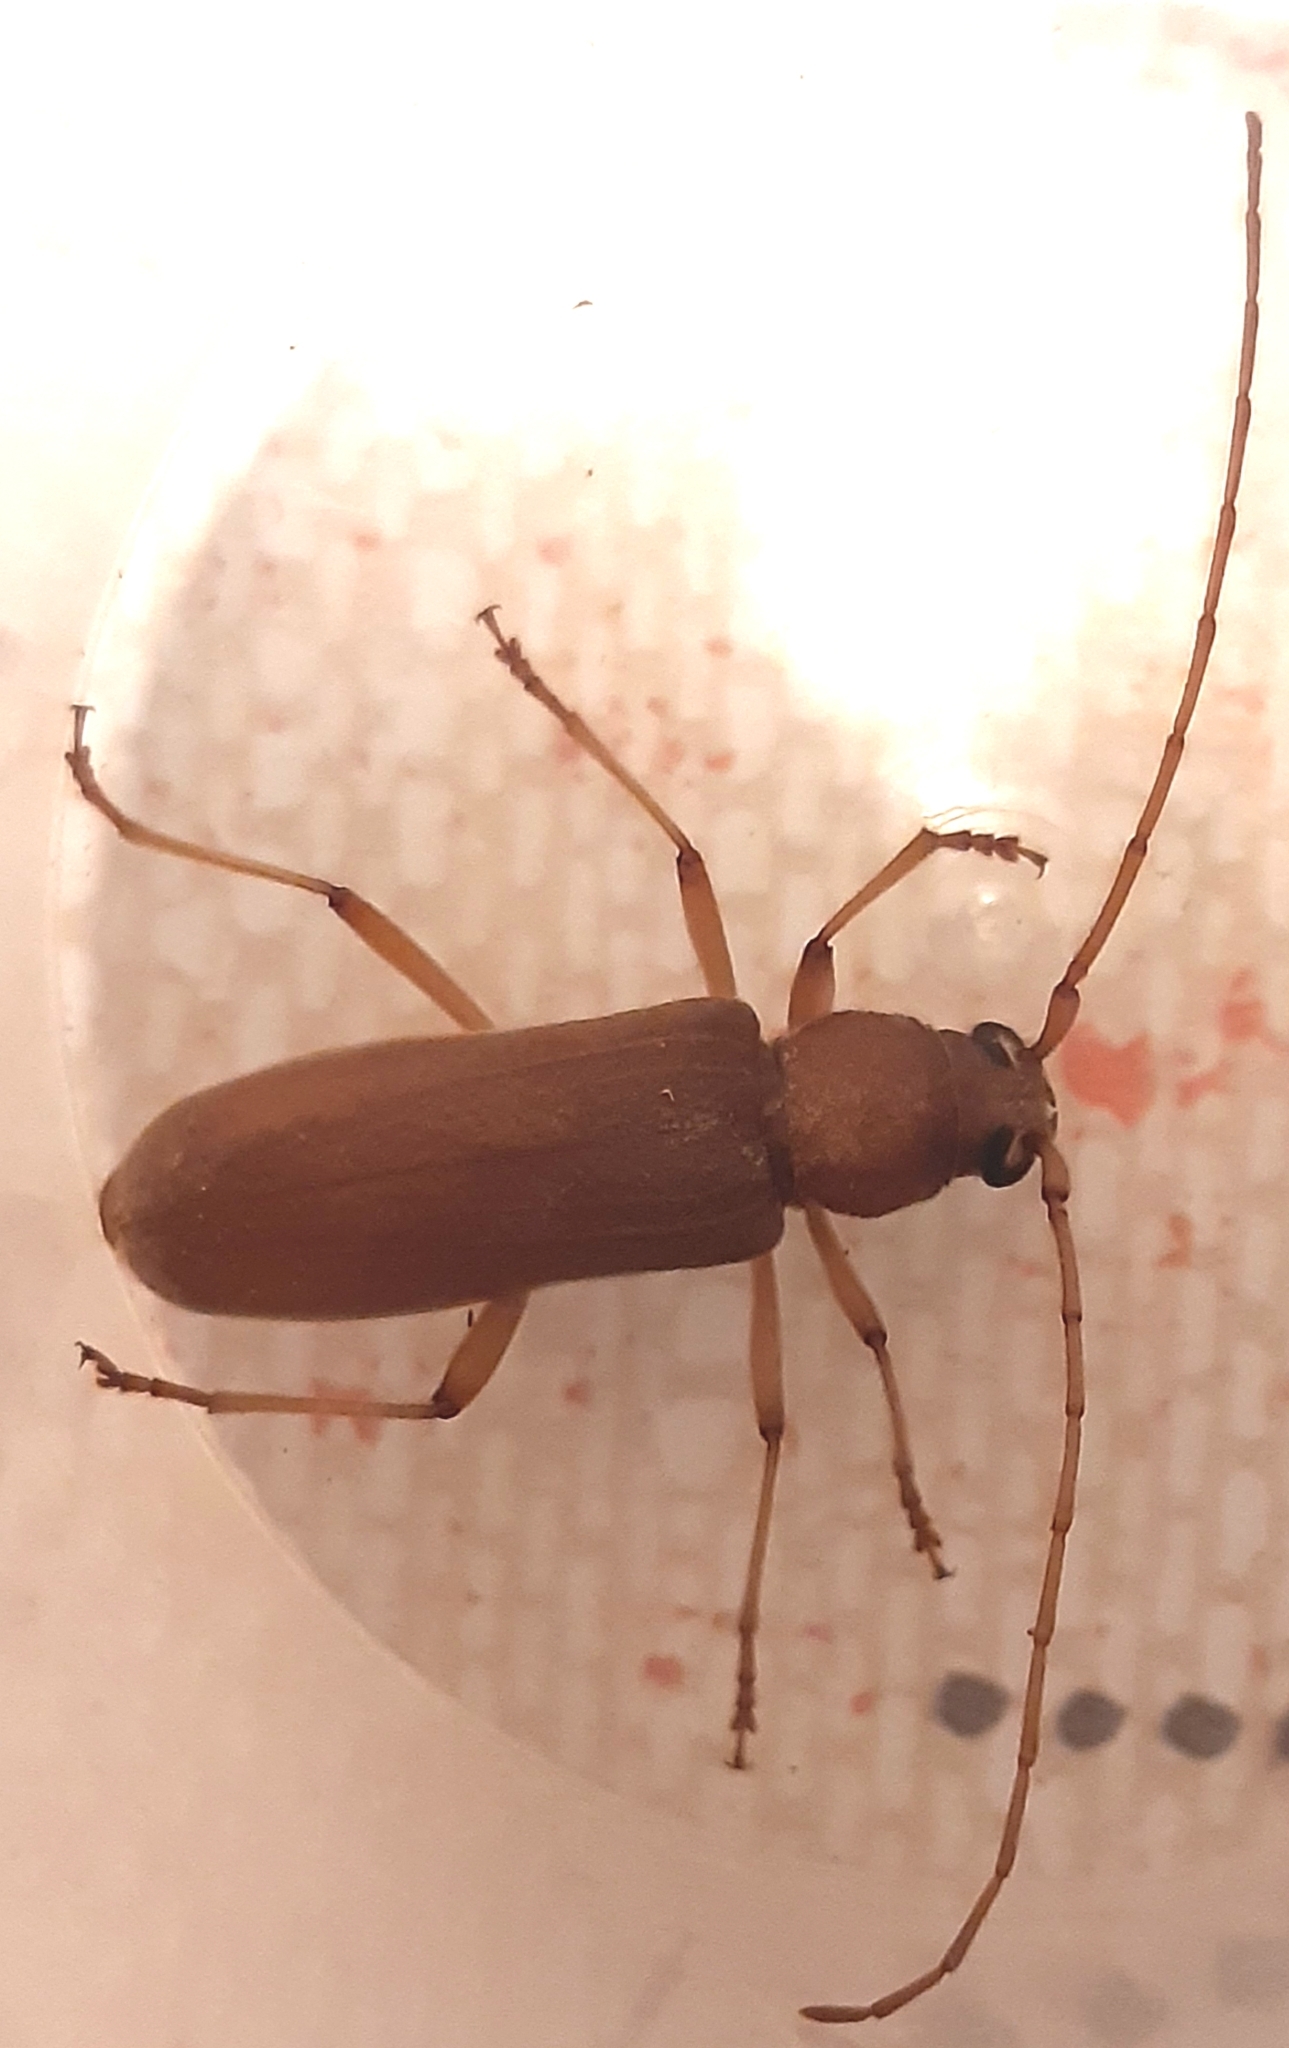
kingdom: Animalia
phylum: Arthropoda
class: Insecta
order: Coleoptera
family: Cerambycidae
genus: Stromatium
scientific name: Stromatium auratum
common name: Long-horned beetle
